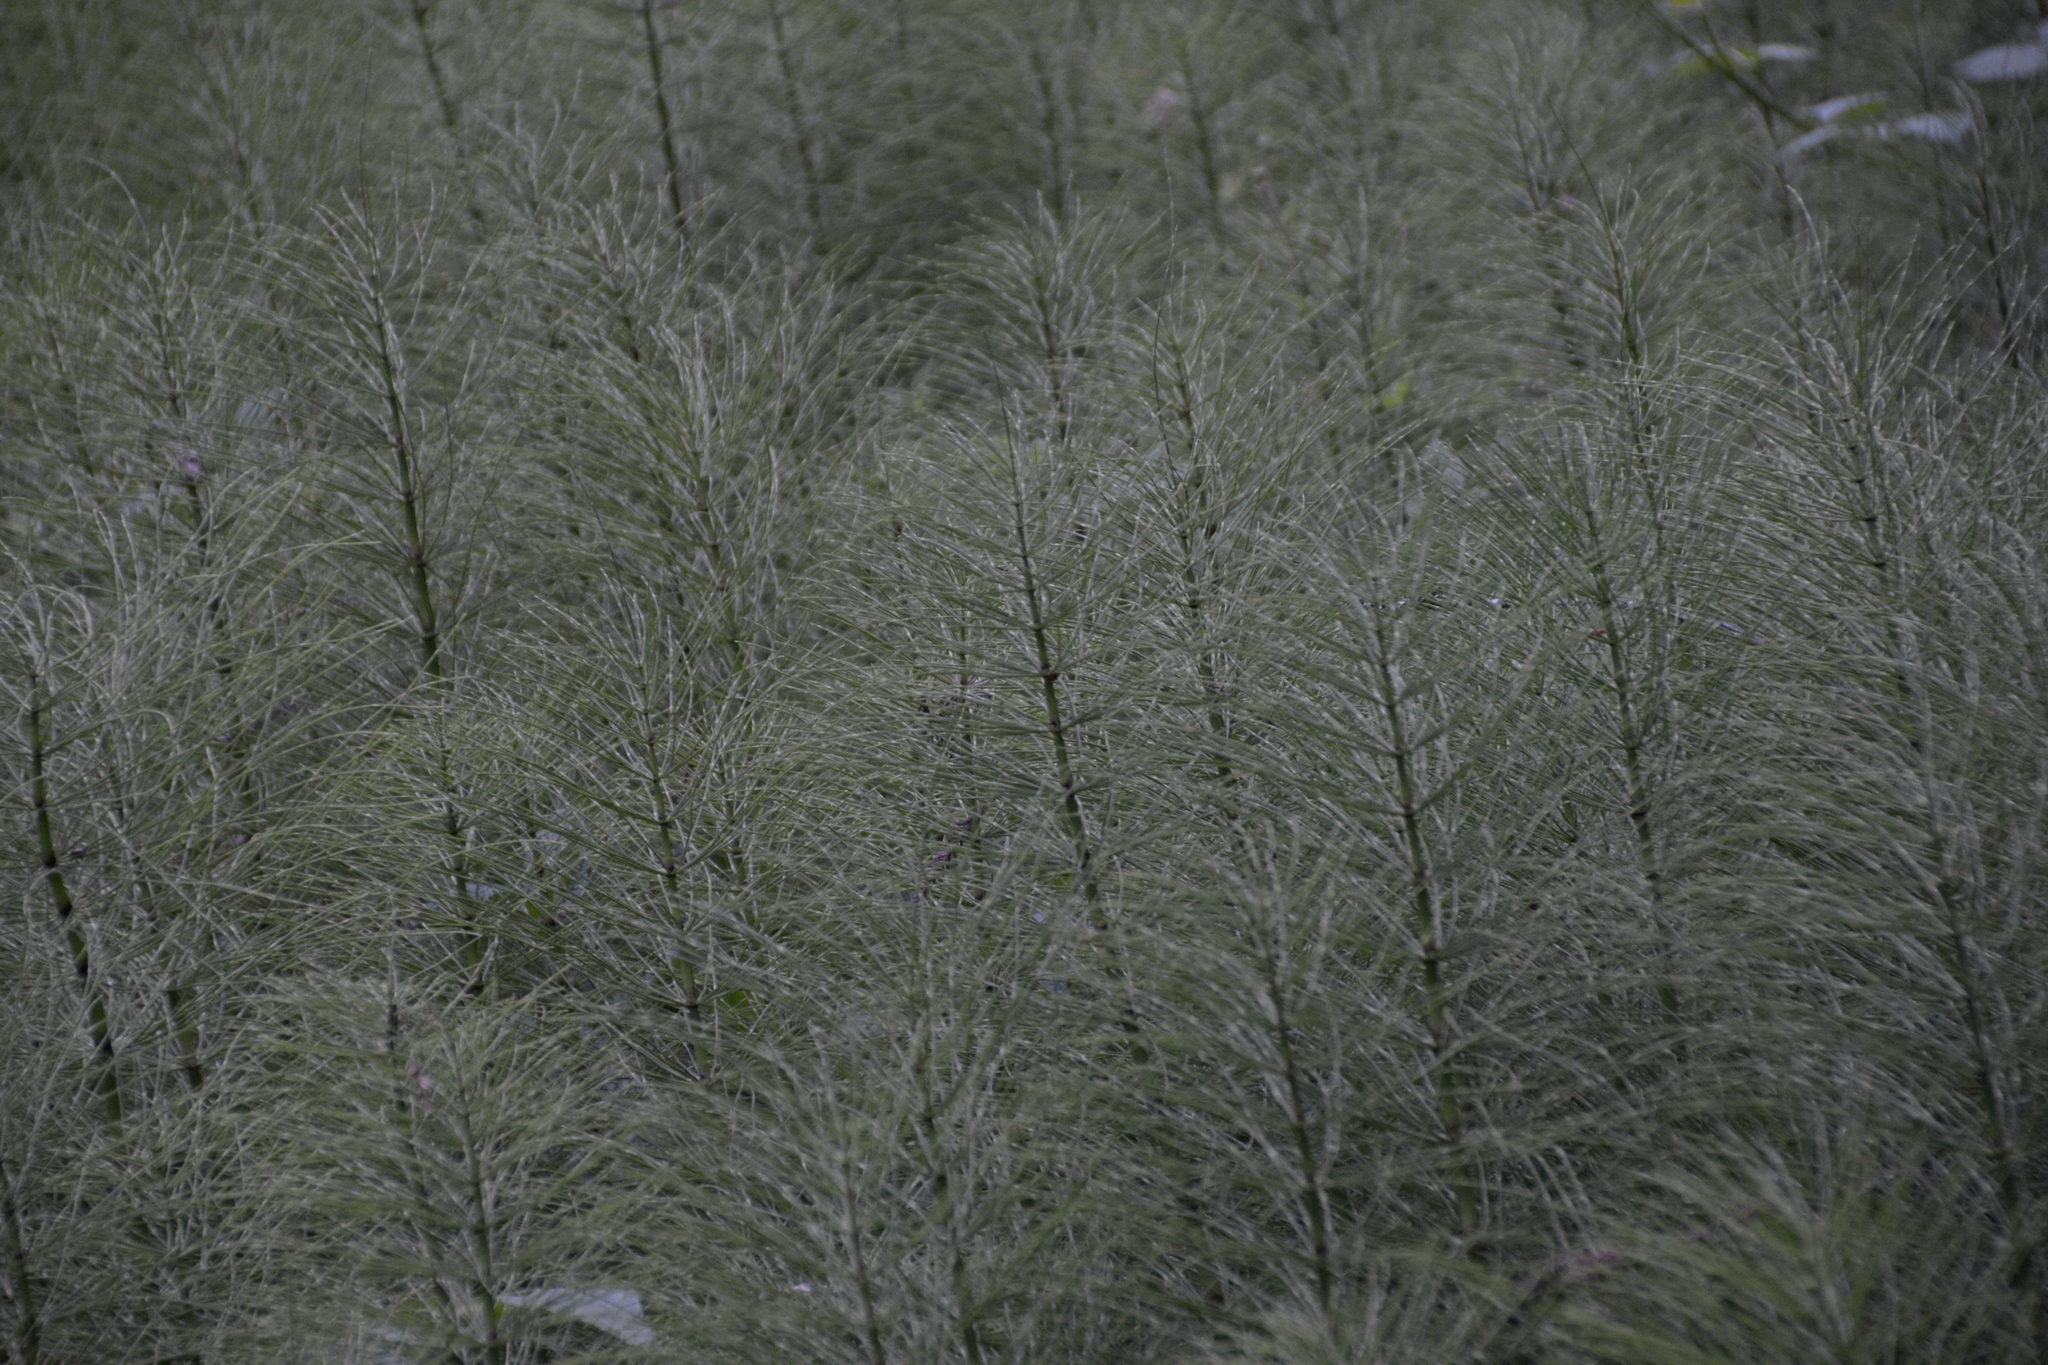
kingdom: Plantae
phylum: Tracheophyta
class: Polypodiopsida
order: Equisetales
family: Equisetaceae
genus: Equisetum
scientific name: Equisetum braunii
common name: Braun's horsetail
